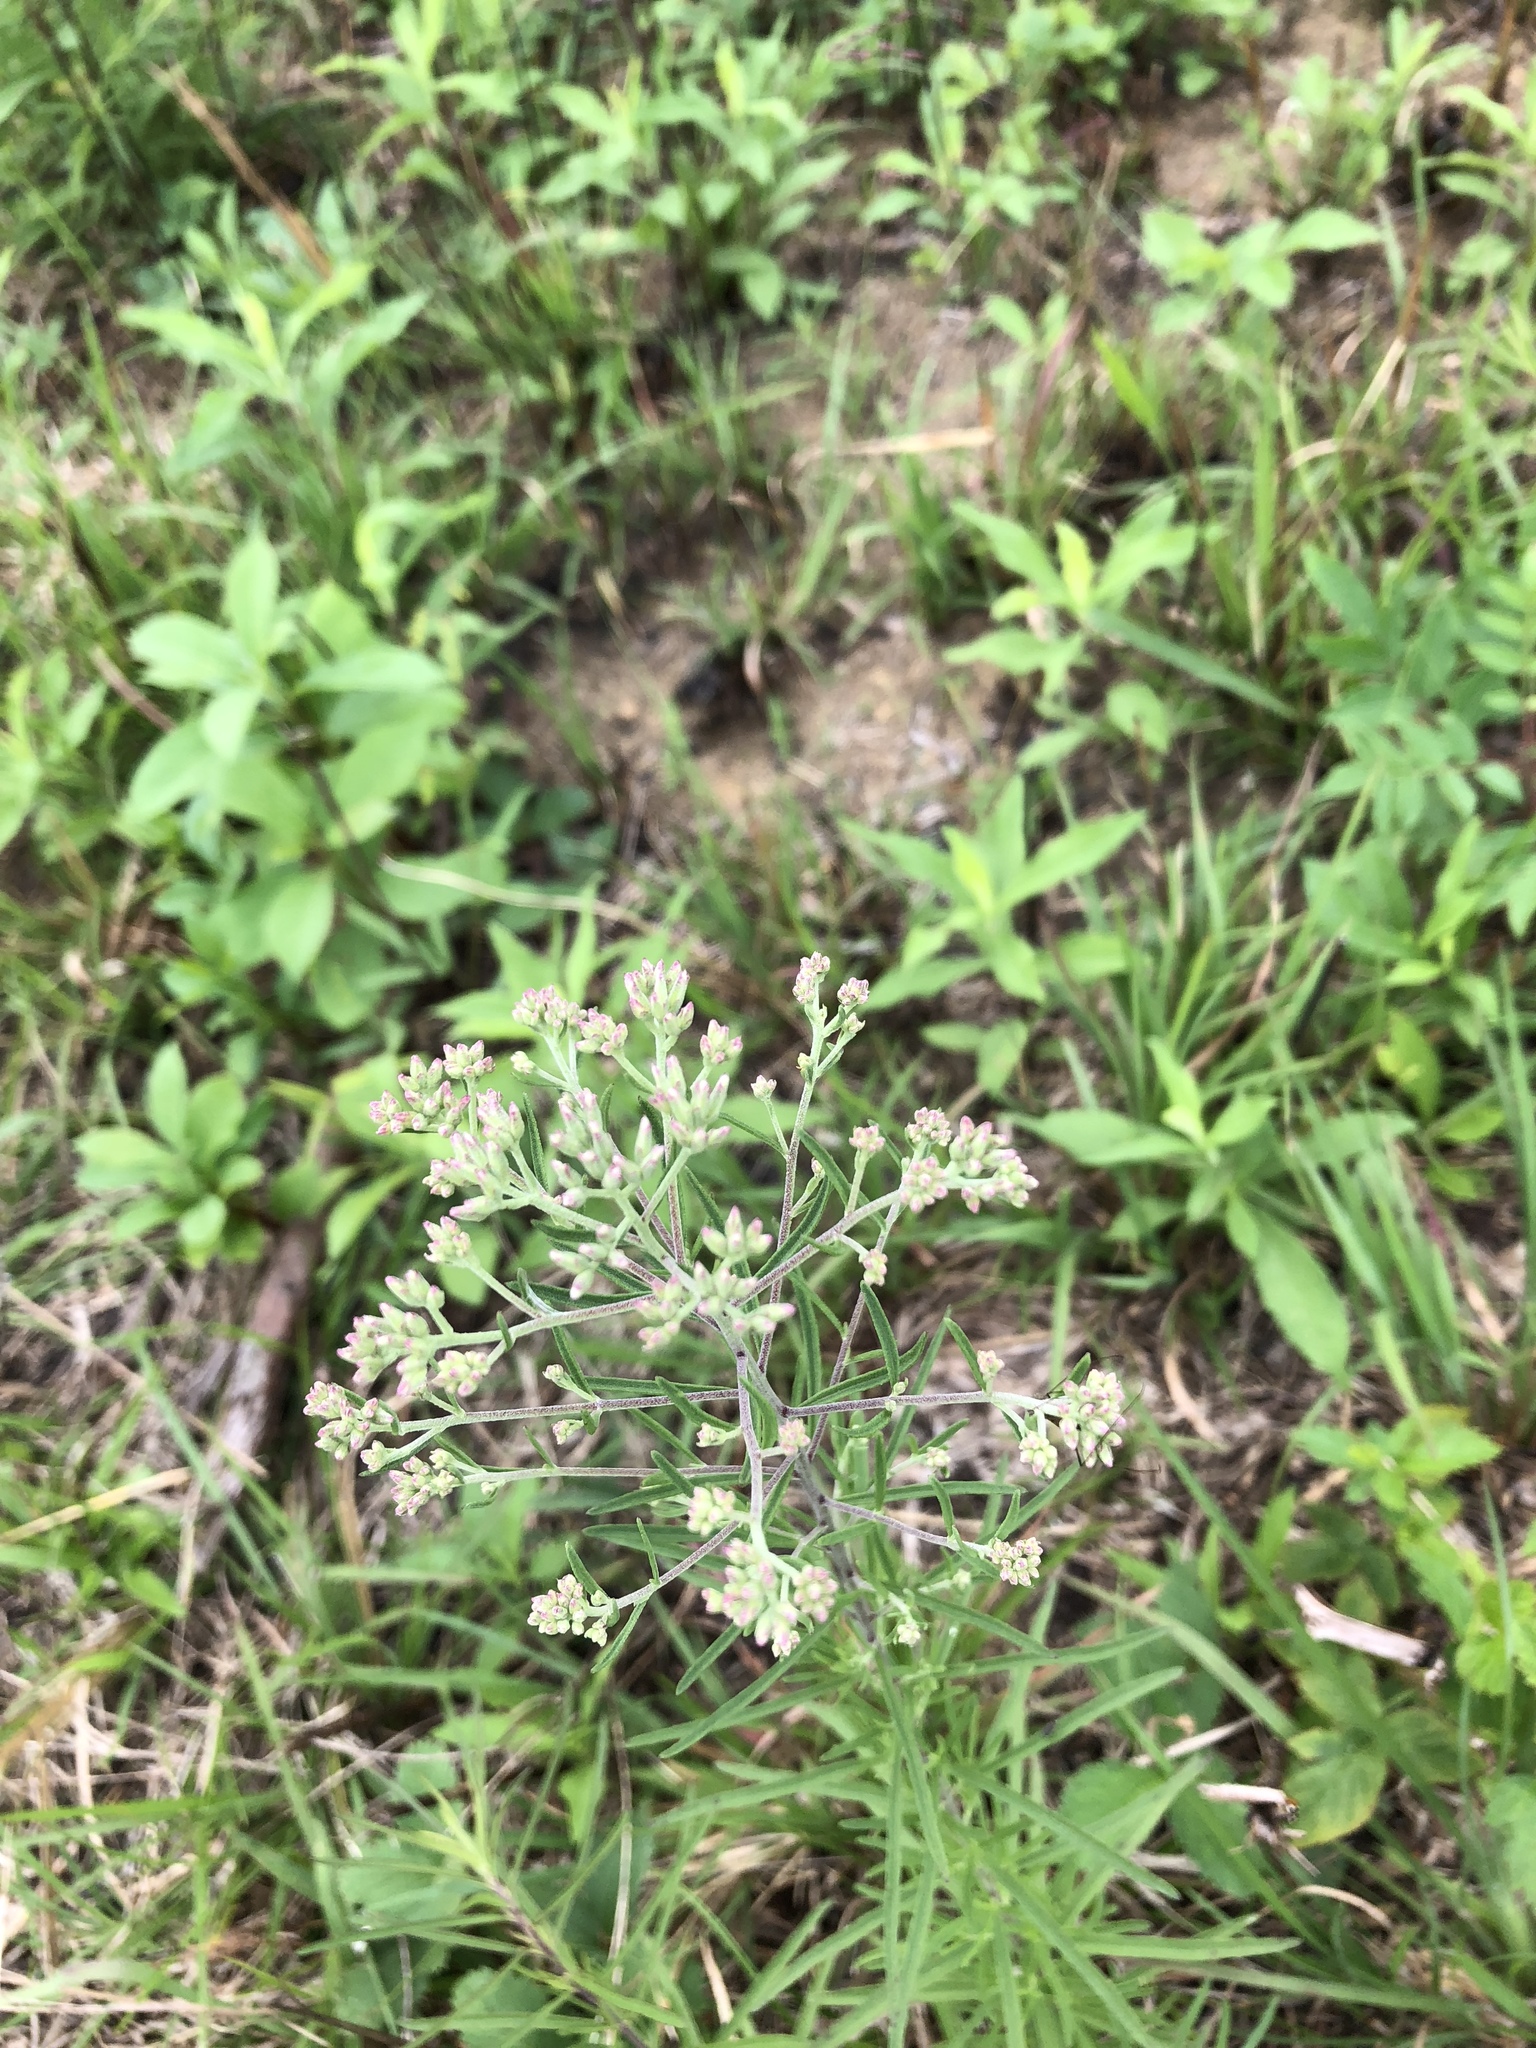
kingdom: Plantae
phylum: Tracheophyta
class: Magnoliopsida
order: Asterales
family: Asteraceae
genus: Eupatorium
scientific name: Eupatorium hyssopifolium
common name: Hyssop-leaf thoroughwort
